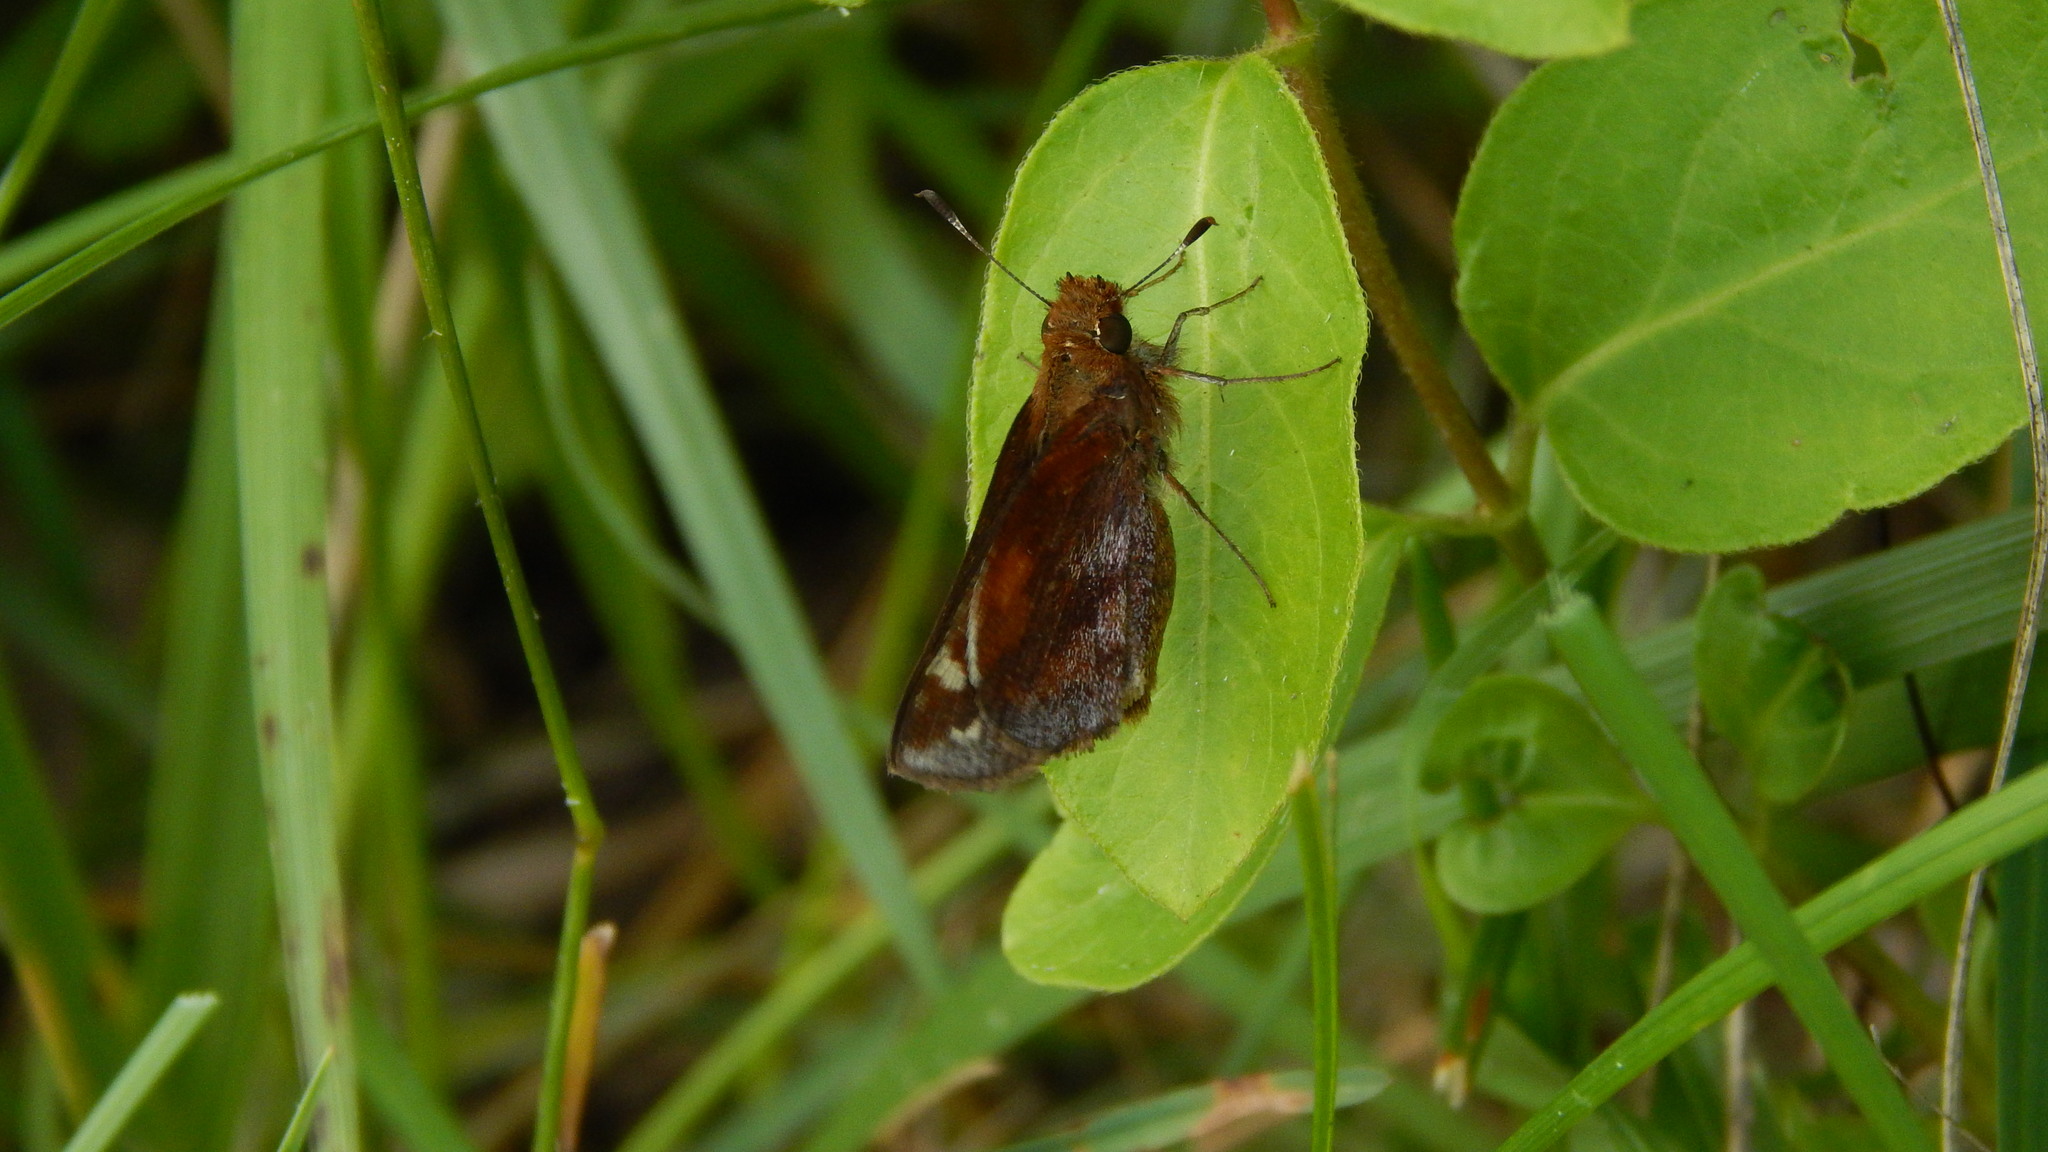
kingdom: Animalia
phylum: Arthropoda
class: Insecta
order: Lepidoptera
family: Hesperiidae
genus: Lon
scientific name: Lon zabulon
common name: Zabulon skipper
